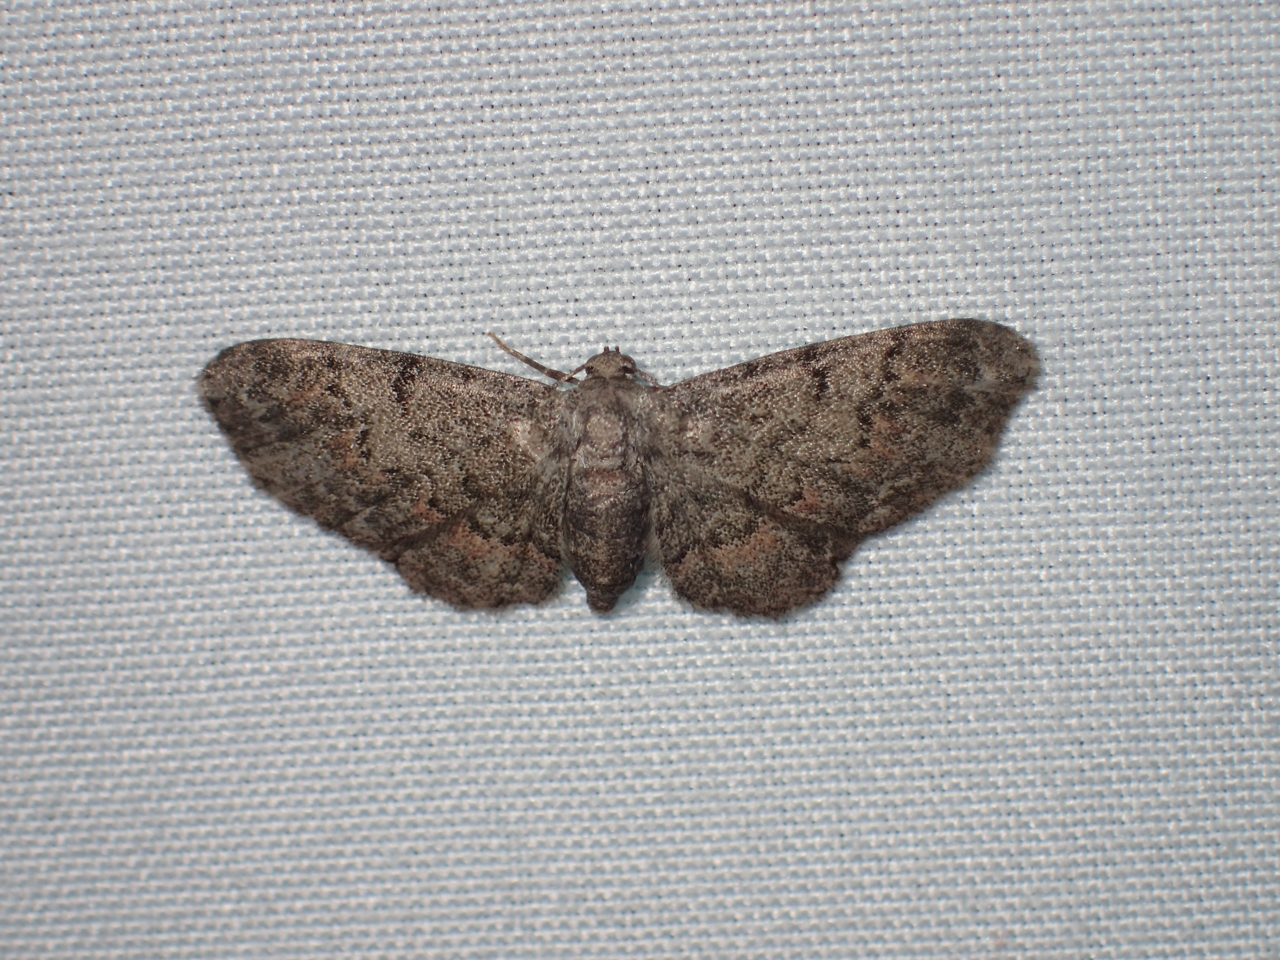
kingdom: Animalia
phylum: Arthropoda
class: Insecta
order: Lepidoptera
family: Geometridae
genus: Glenoides
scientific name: Glenoides texanaria
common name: Texas gray
